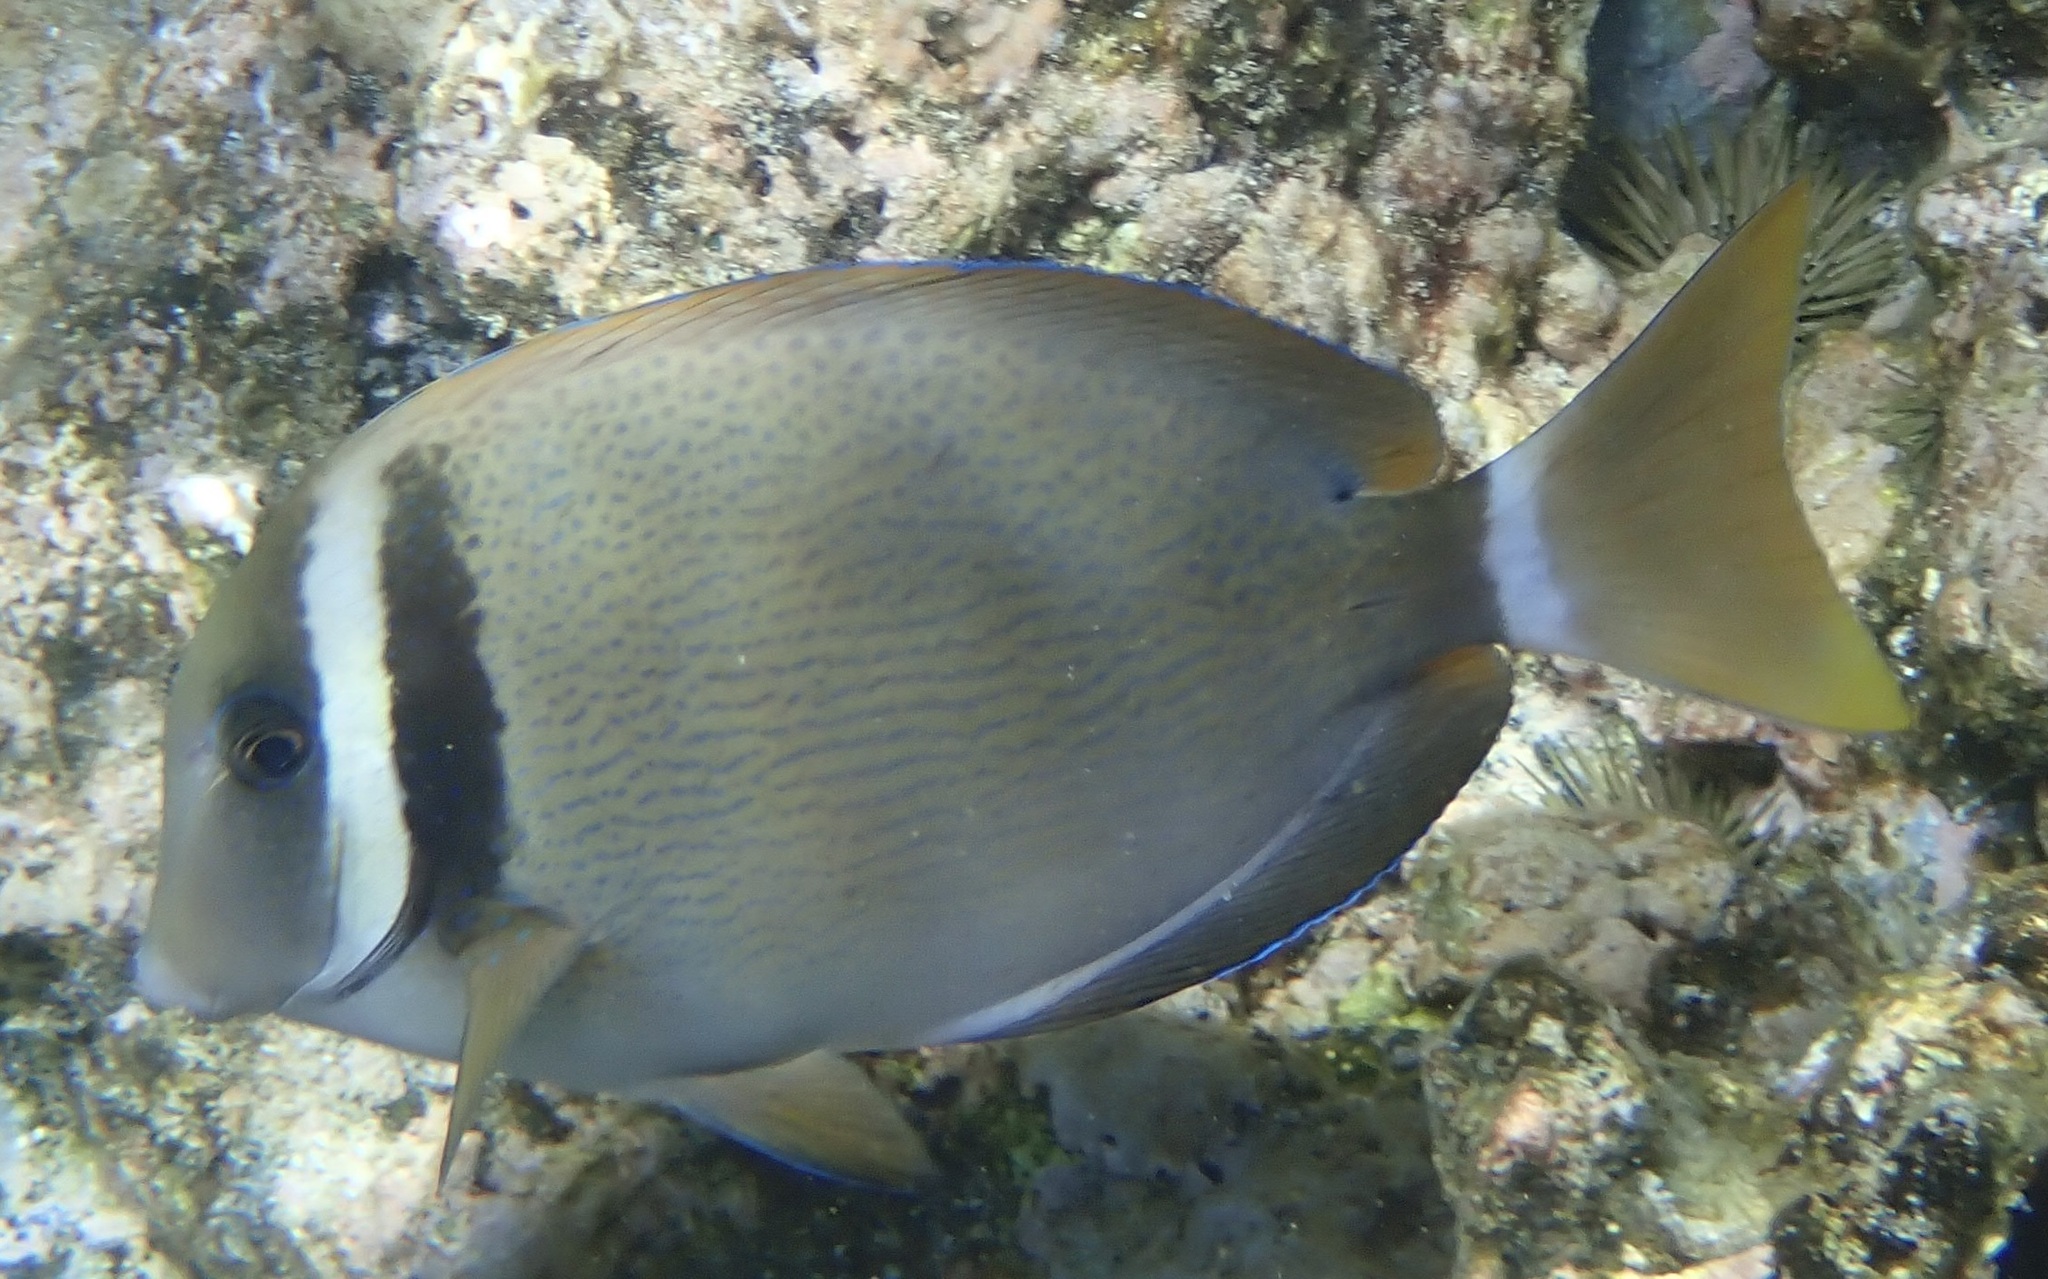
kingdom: Animalia
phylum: Chordata
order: Perciformes
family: Acanthuridae
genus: Acanthurus
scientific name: Acanthurus leucopareius
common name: Head-band surgeonfish
